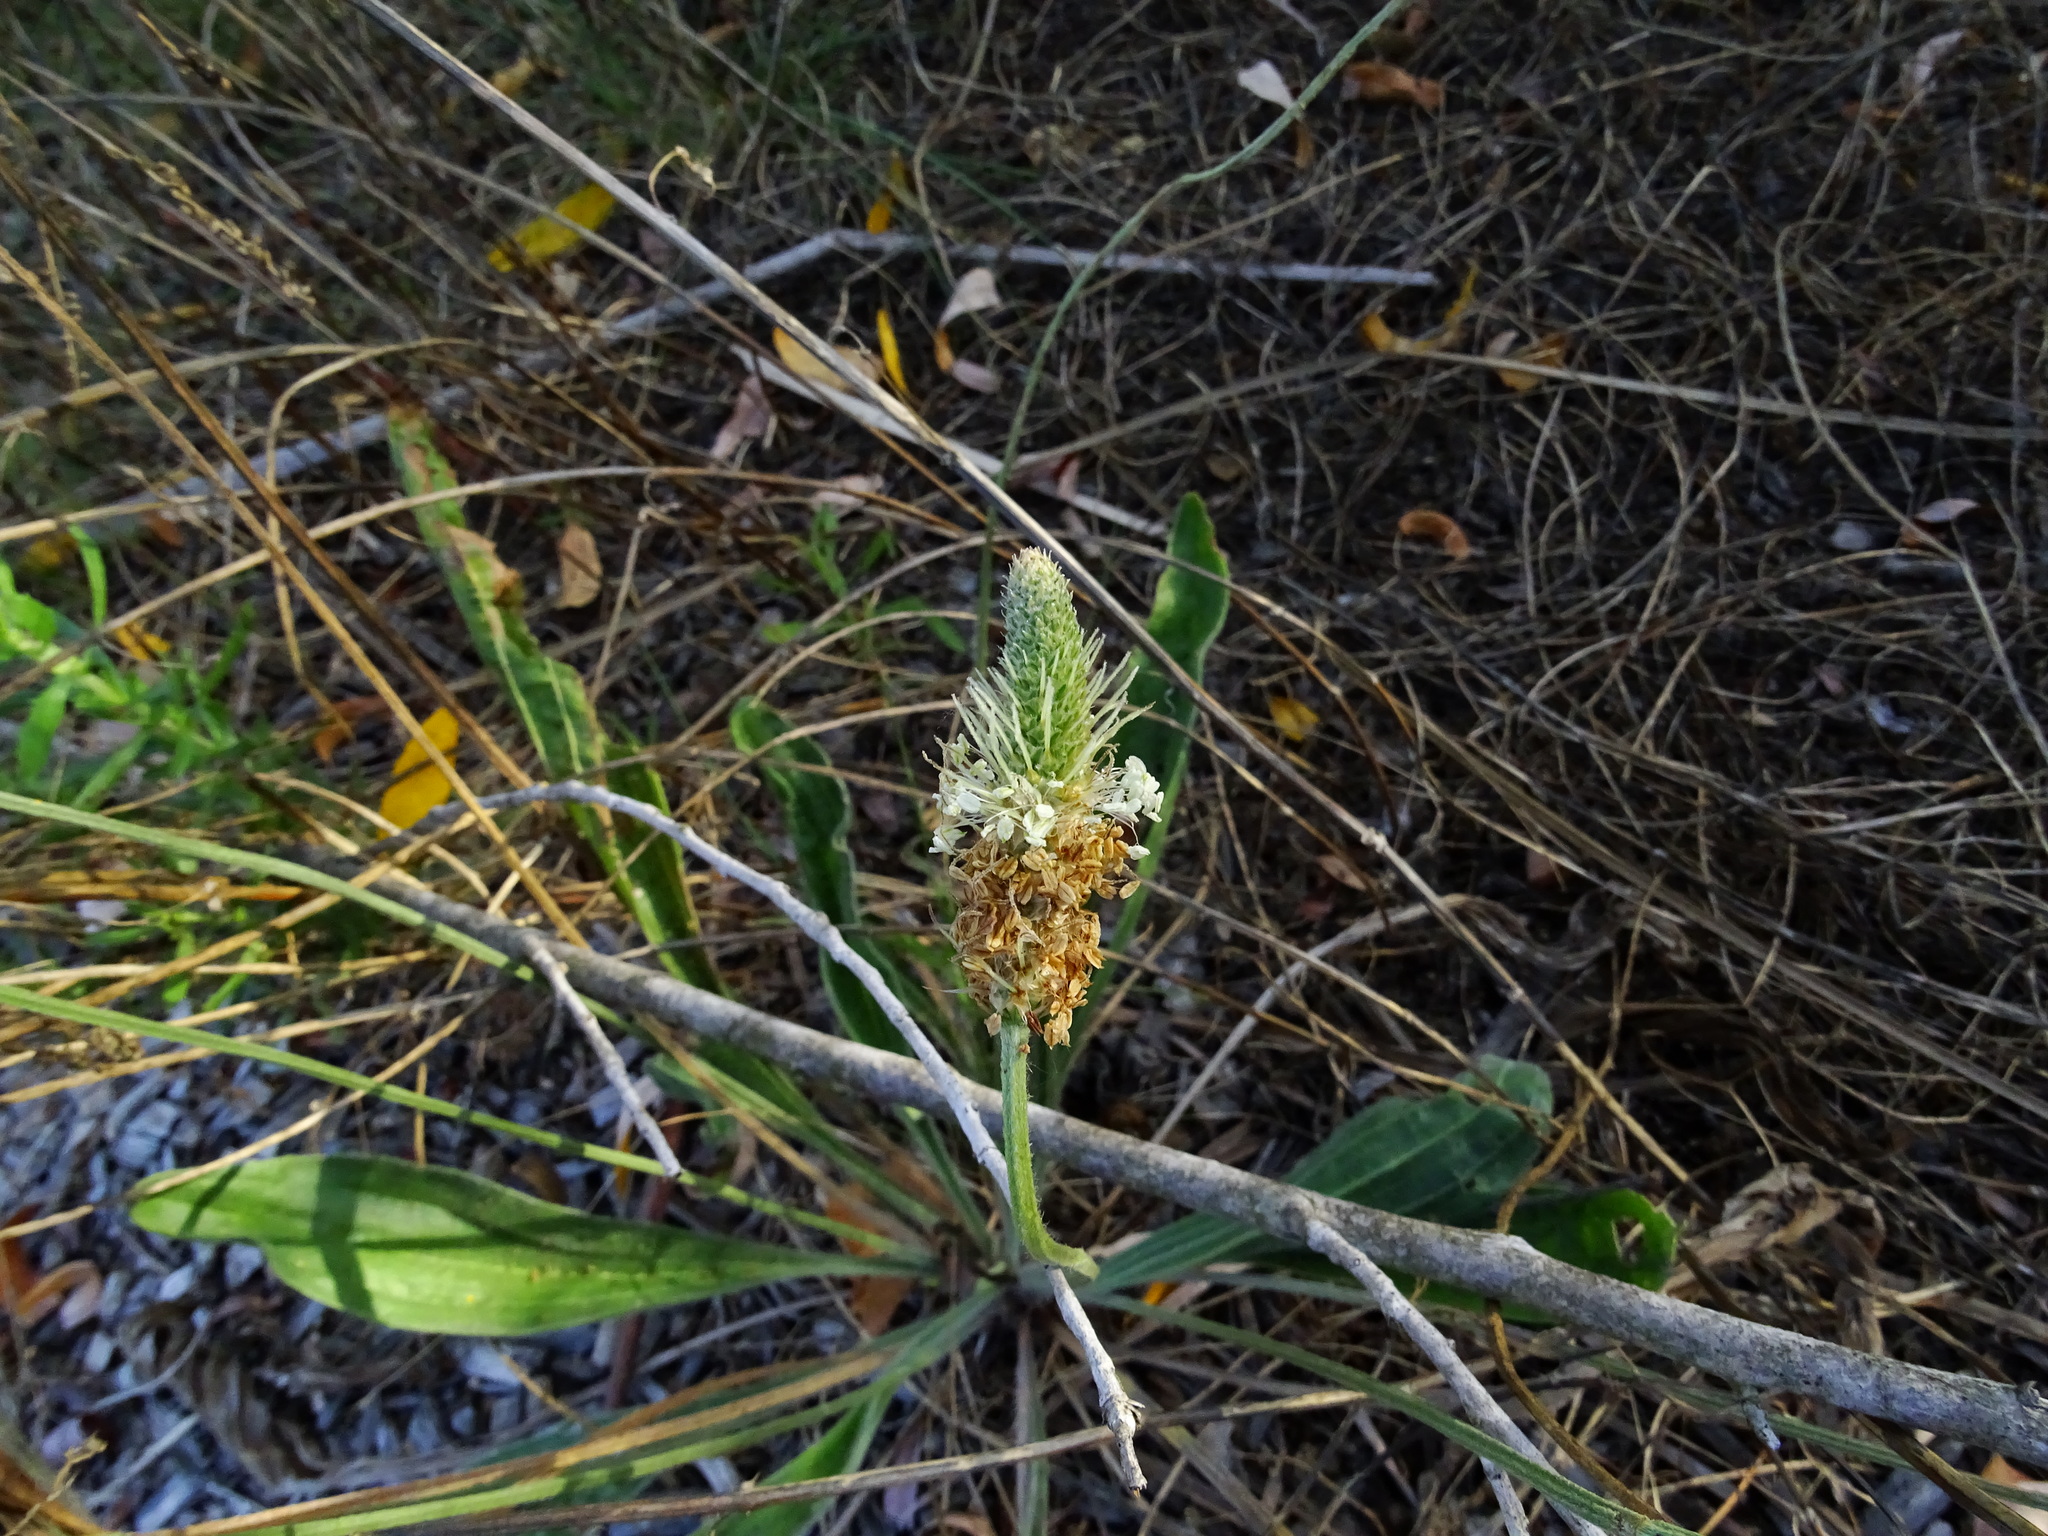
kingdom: Plantae
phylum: Tracheophyta
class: Magnoliopsida
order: Lamiales
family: Plantaginaceae
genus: Plantago
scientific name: Plantago lanceolata
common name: Ribwort plantain
